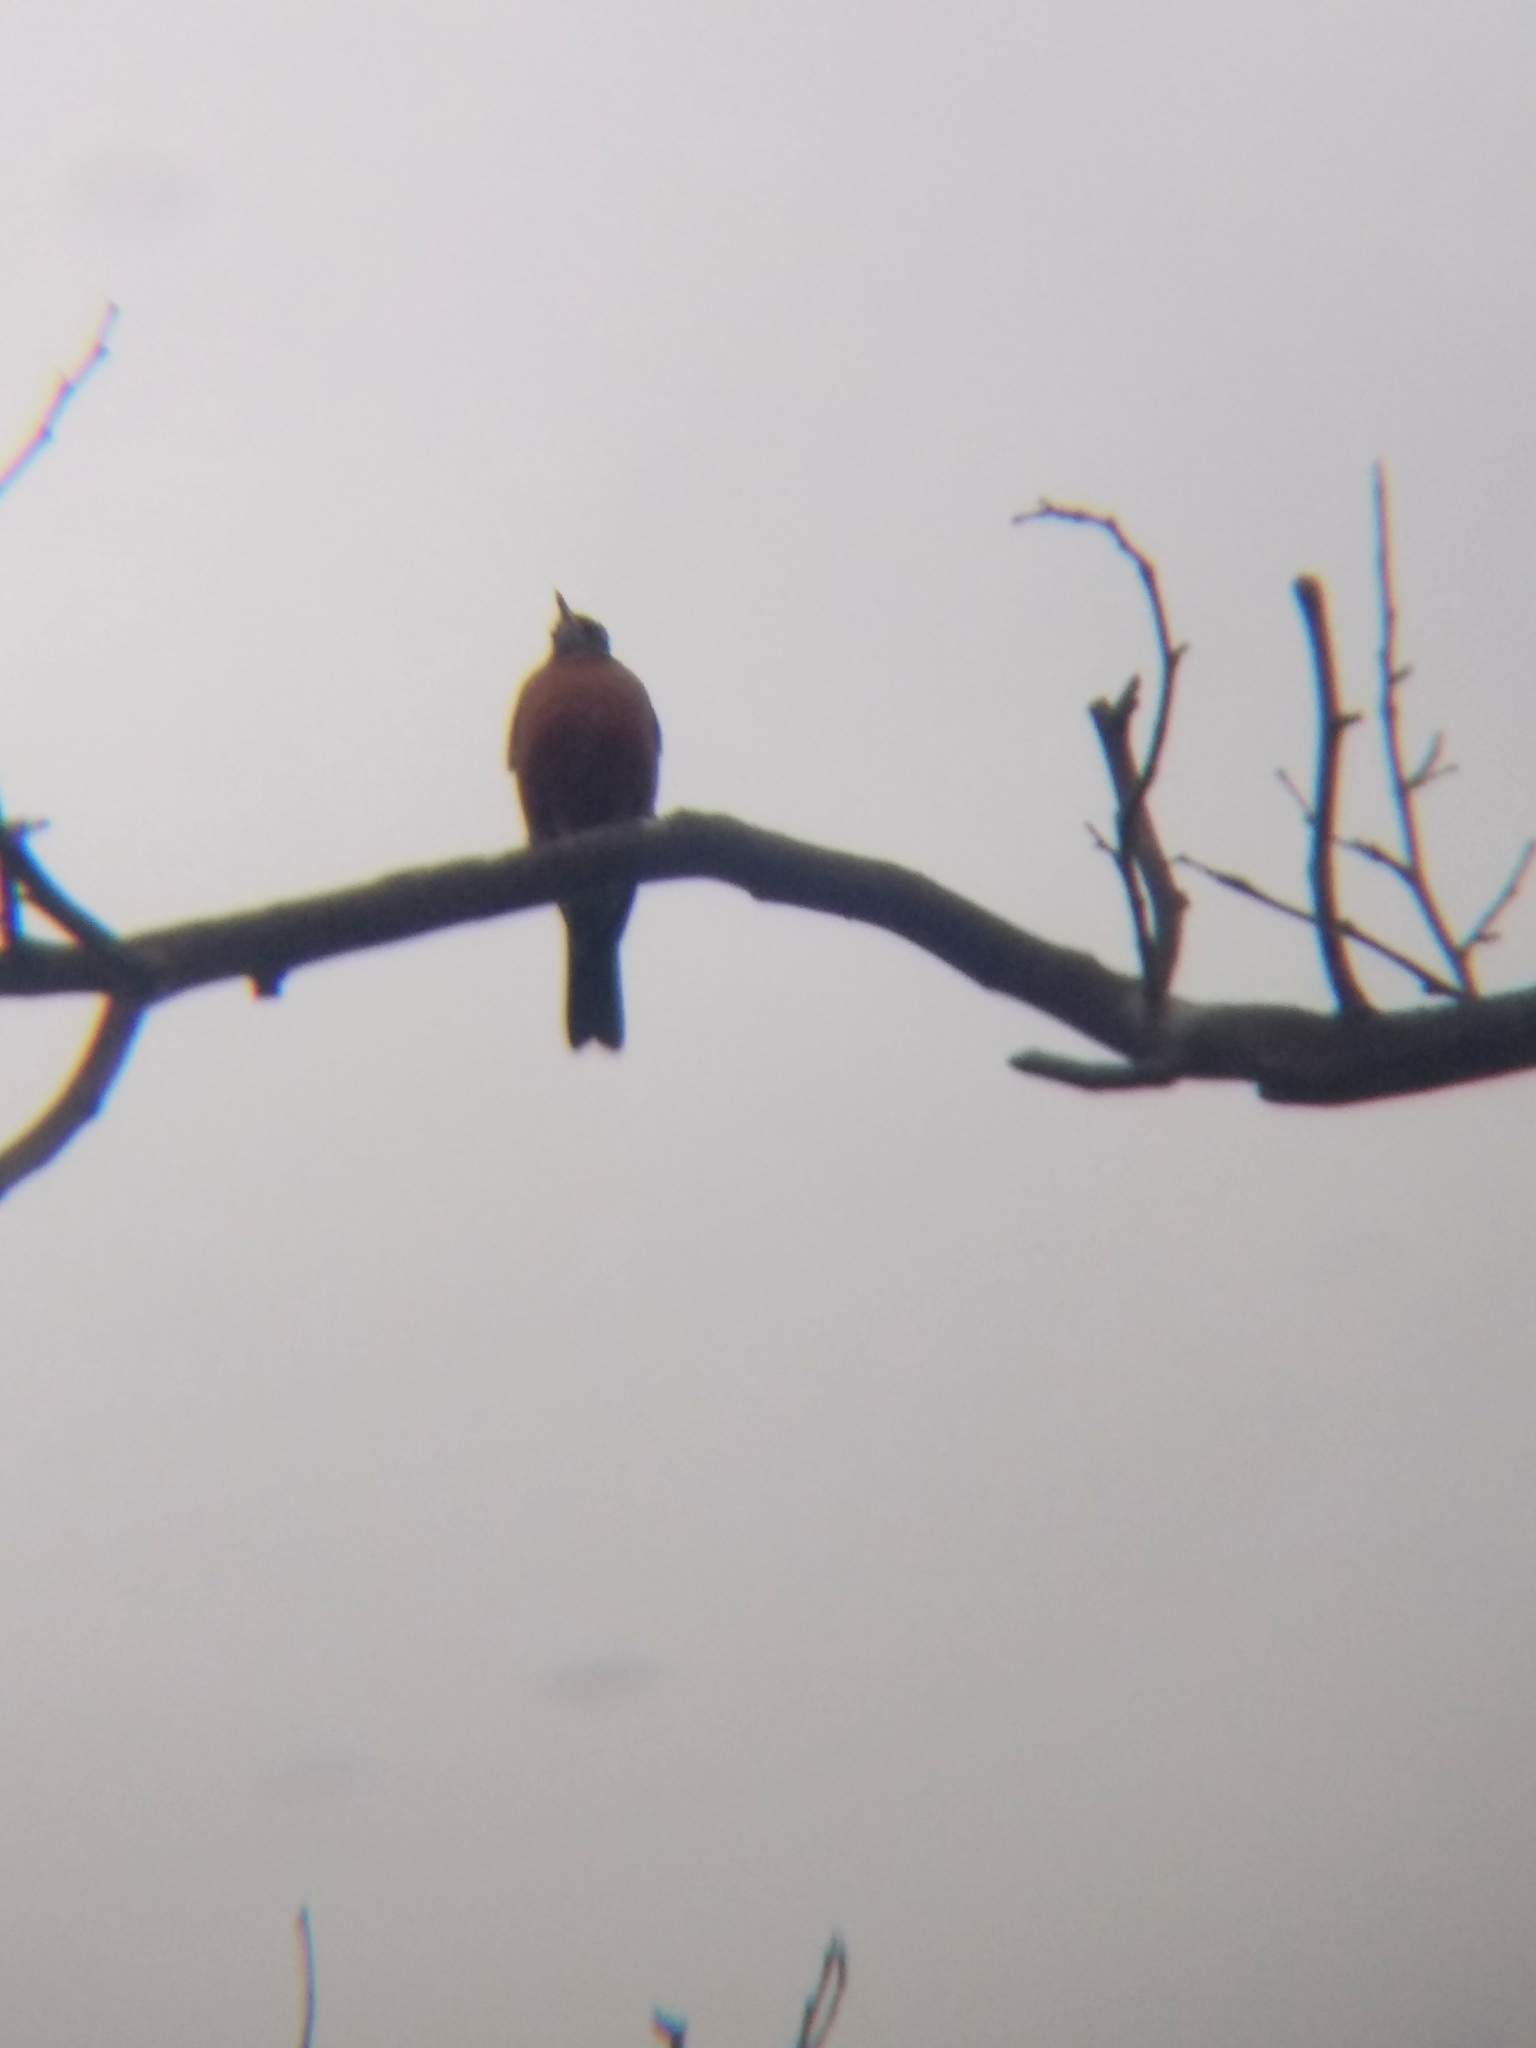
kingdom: Animalia
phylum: Chordata
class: Aves
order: Passeriformes
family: Turdidae
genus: Turdus
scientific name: Turdus migratorius
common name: American robin
